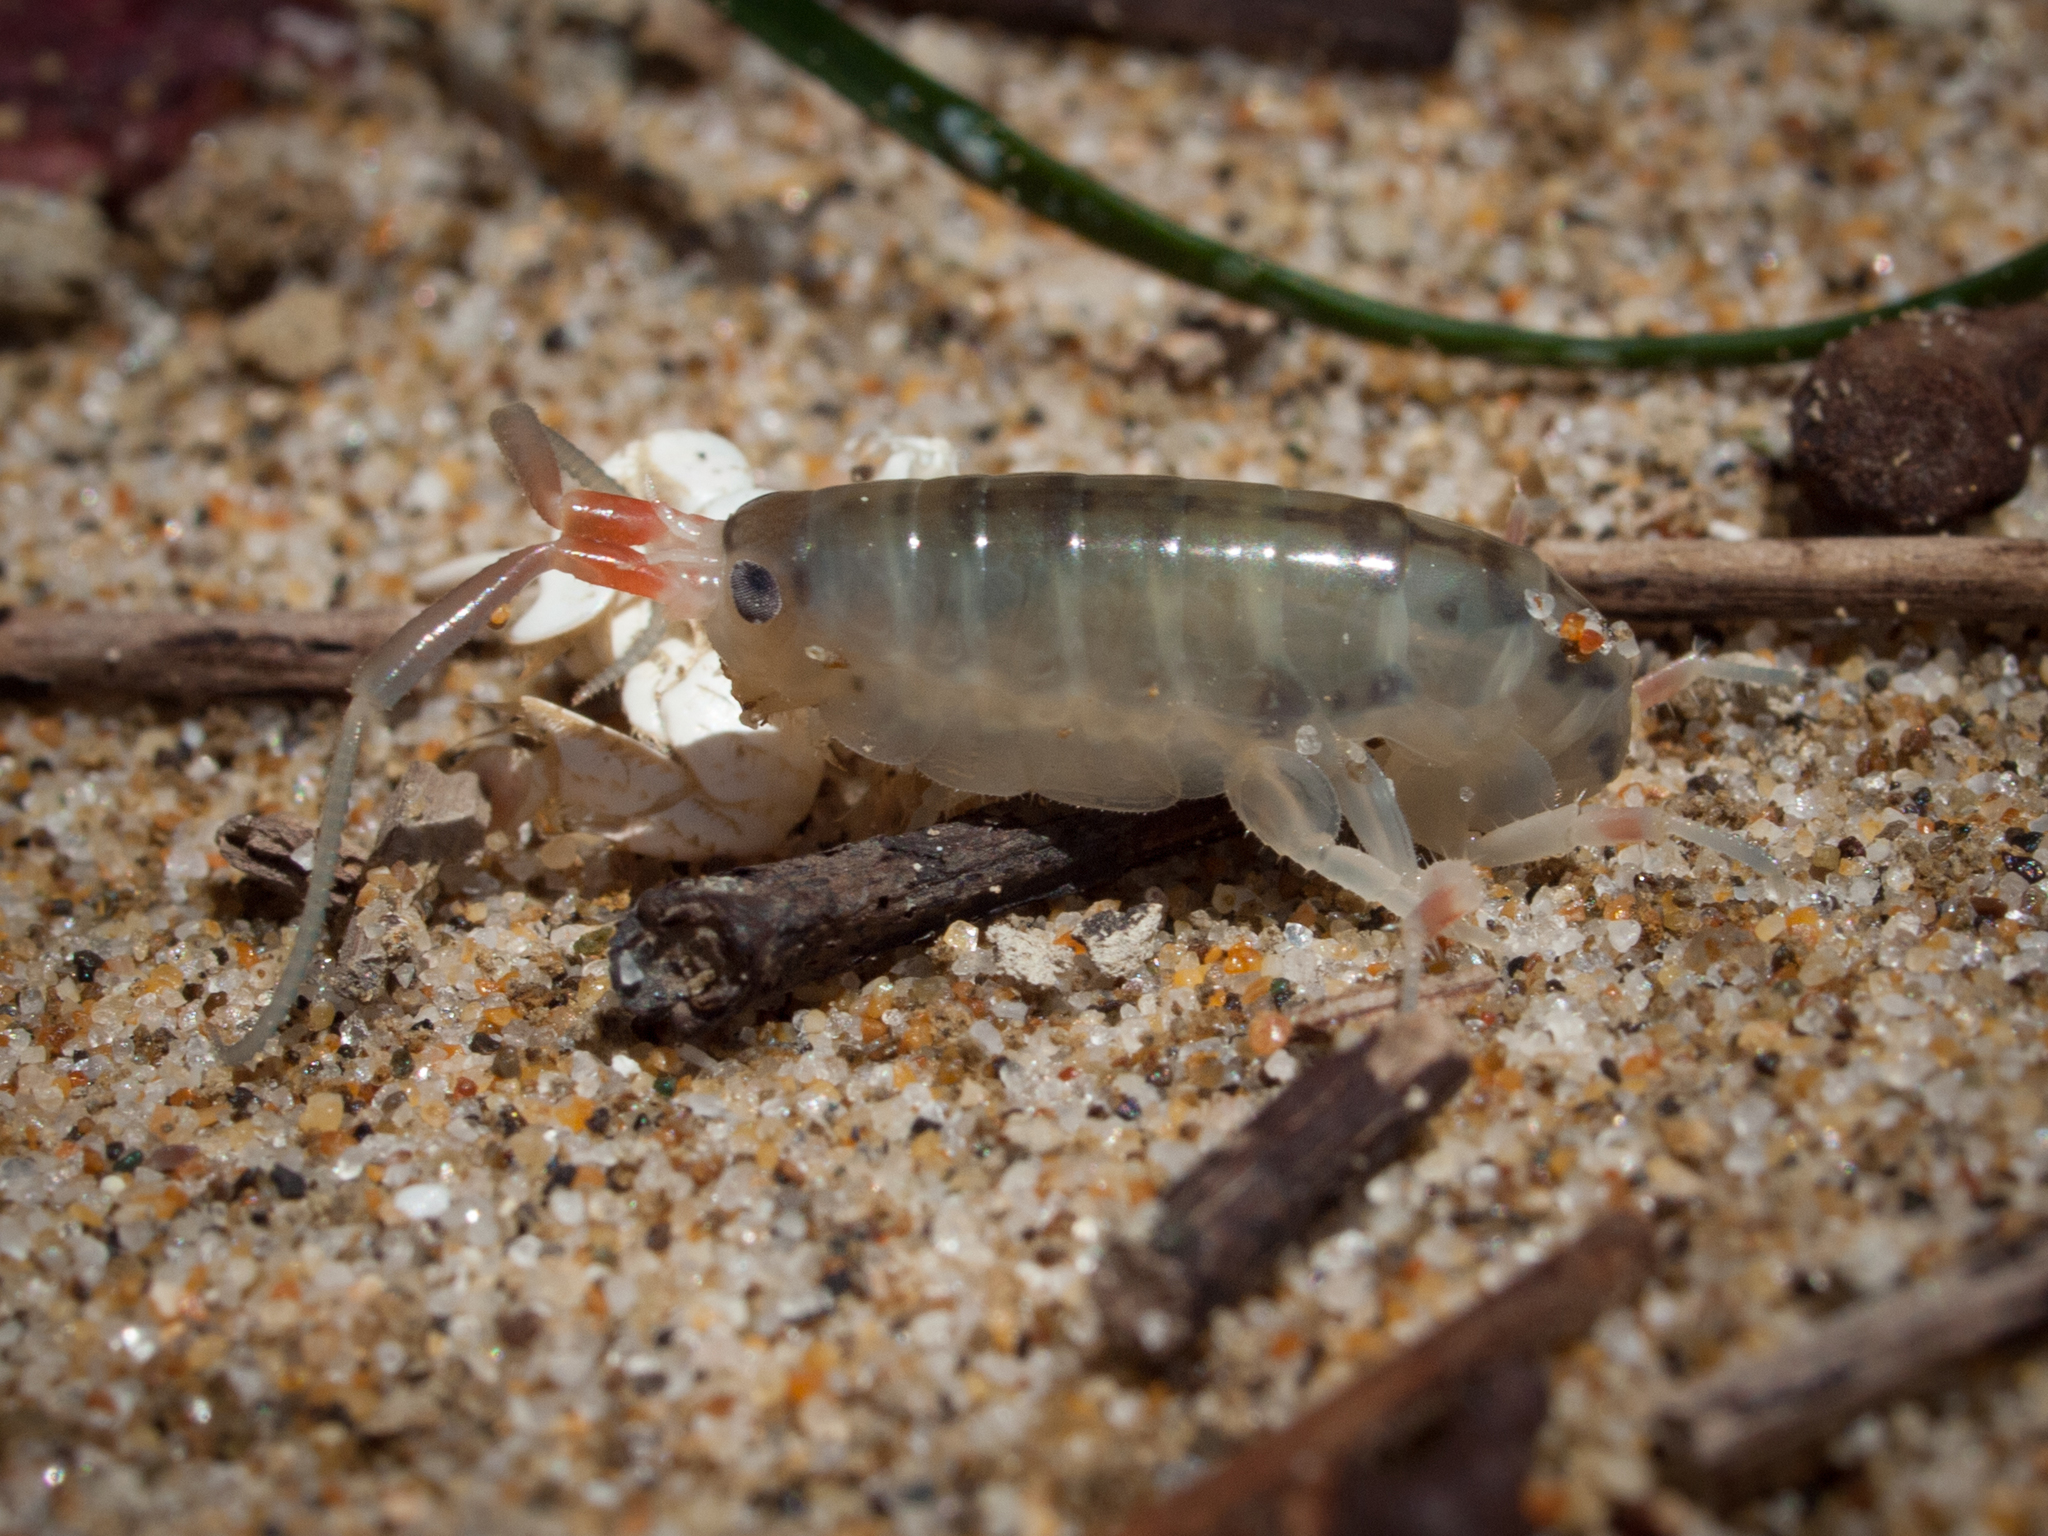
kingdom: Animalia
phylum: Arthropoda
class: Malacostraca
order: Amphipoda
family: Talitridae
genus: Megalorchestia
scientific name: Megalorchestia californiana
